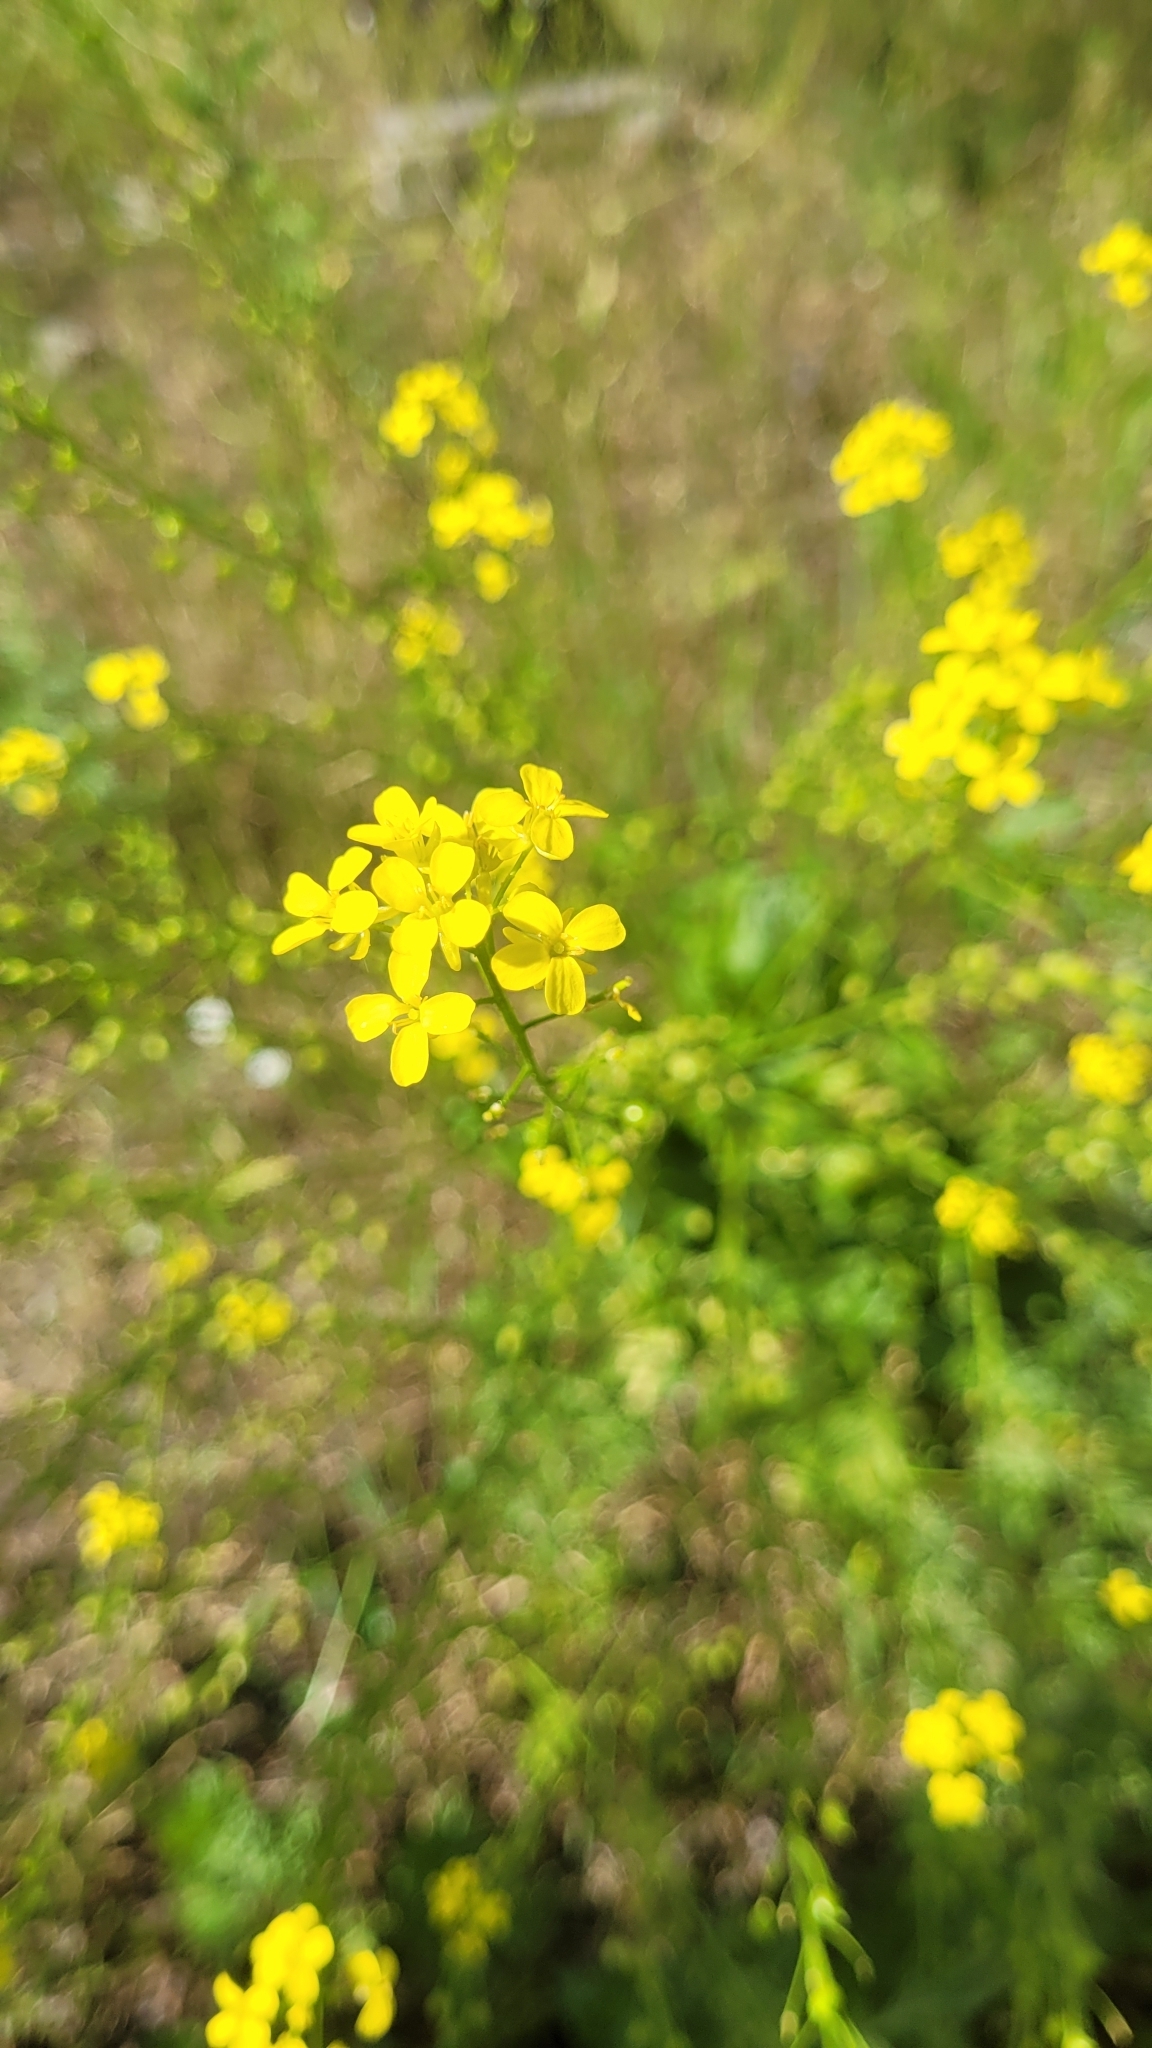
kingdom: Plantae
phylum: Tracheophyta
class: Magnoliopsida
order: Brassicales
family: Brassicaceae
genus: Bunias
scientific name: Bunias orientalis
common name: Warty-cabbage
